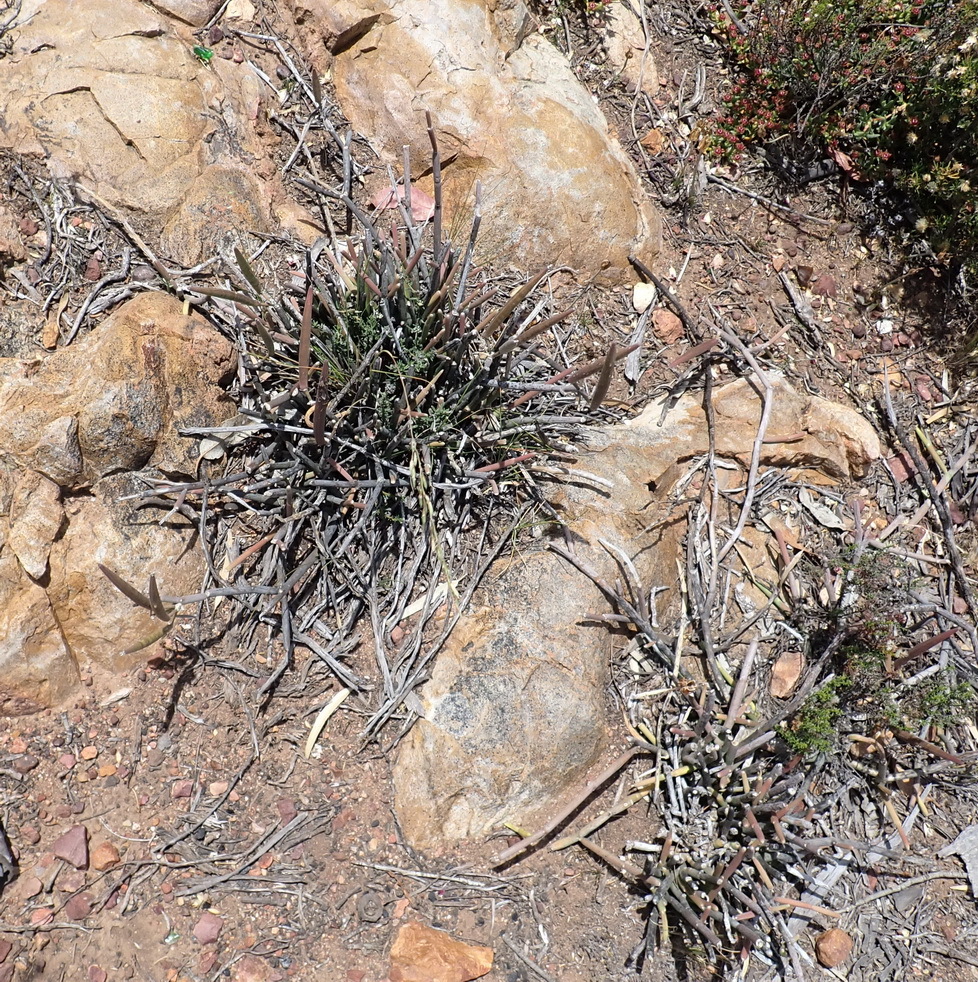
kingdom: Plantae
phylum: Tracheophyta
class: Magnoliopsida
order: Gentianales
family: Apocynaceae
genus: Cynanchum
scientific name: Cynanchum viminale
